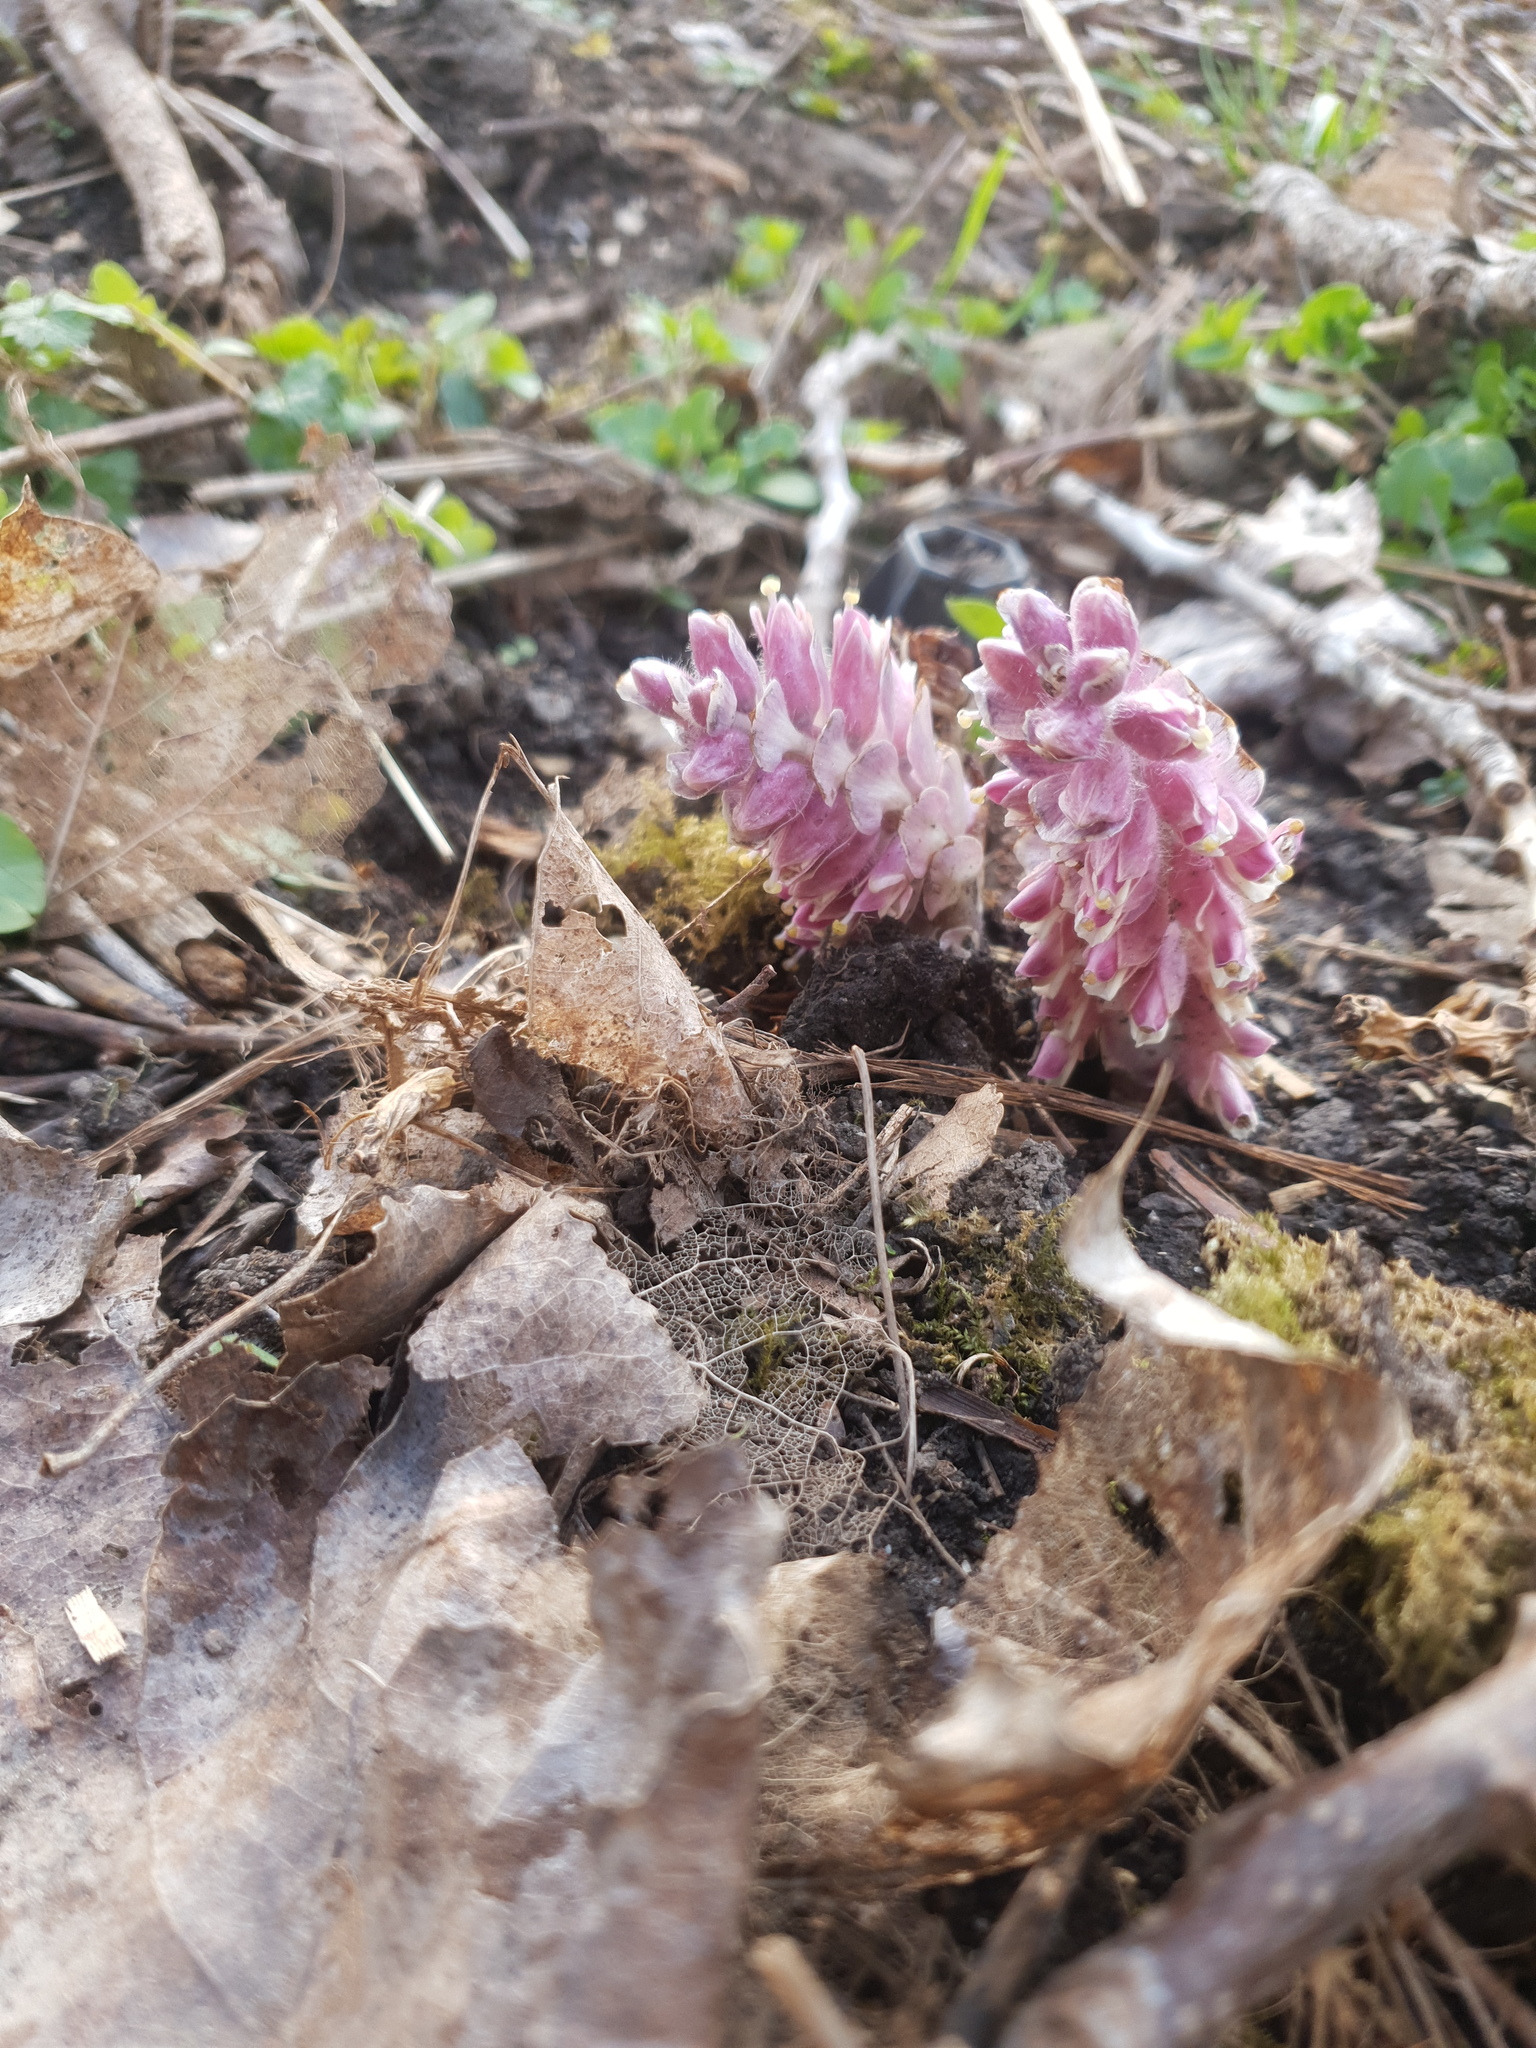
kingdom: Plantae
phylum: Tracheophyta
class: Magnoliopsida
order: Lamiales
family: Orobanchaceae
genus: Lathraea
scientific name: Lathraea squamaria
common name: Toothwort
